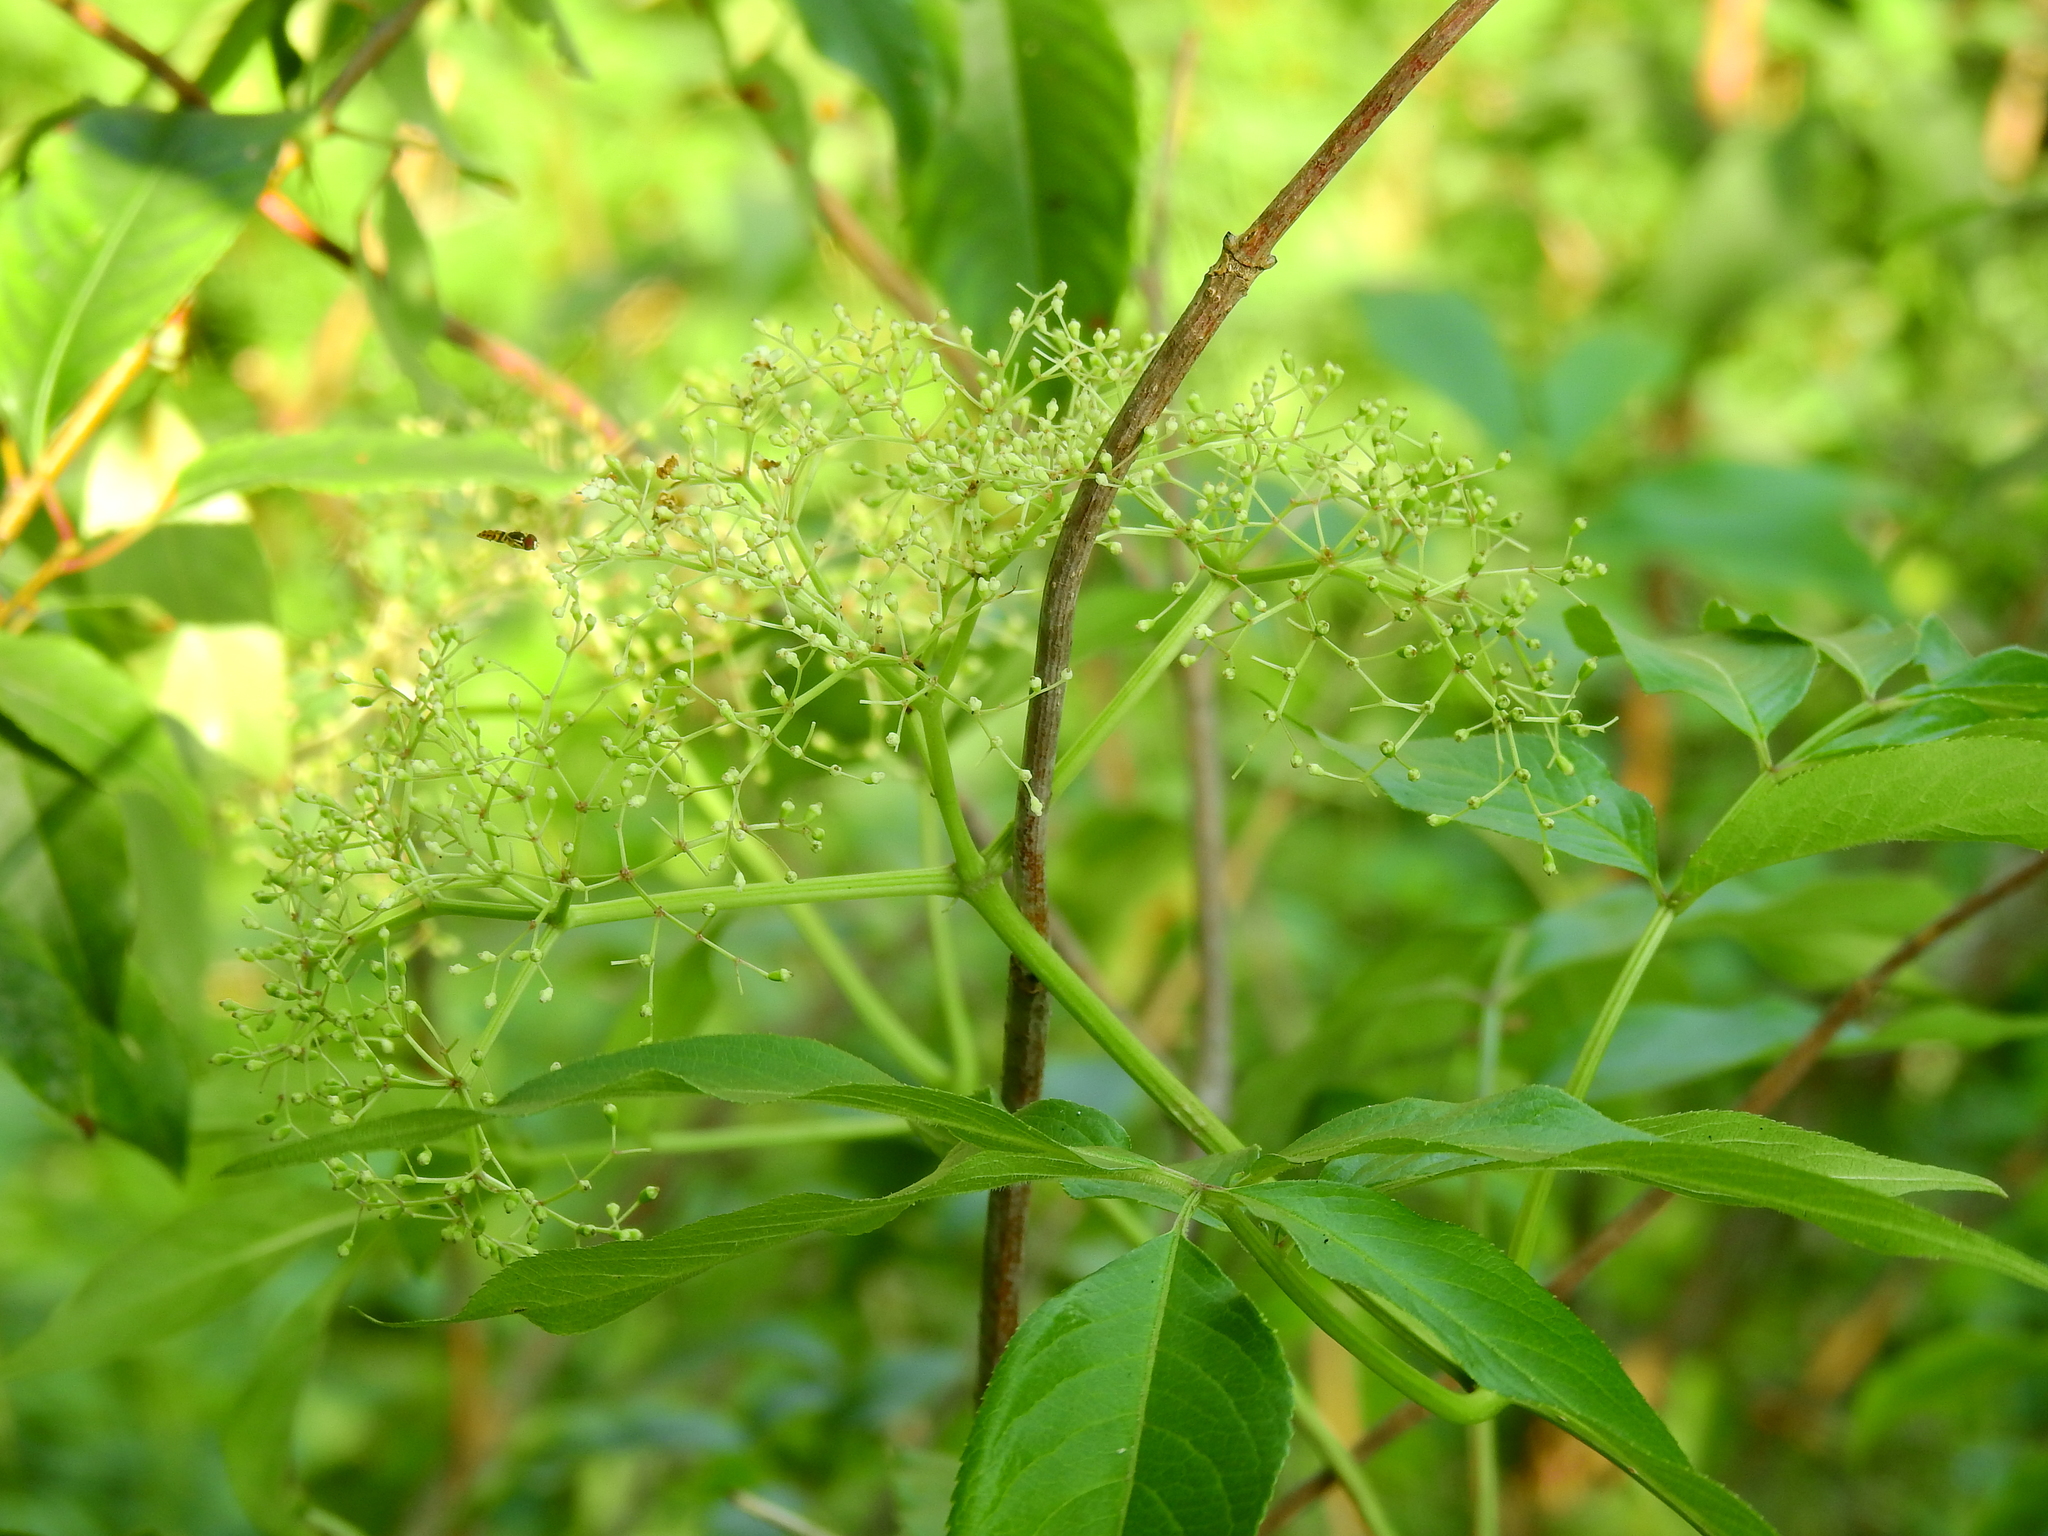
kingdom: Plantae
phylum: Tracheophyta
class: Magnoliopsida
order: Dipsacales
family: Viburnaceae
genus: Sambucus
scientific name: Sambucus canadensis
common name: American elder
